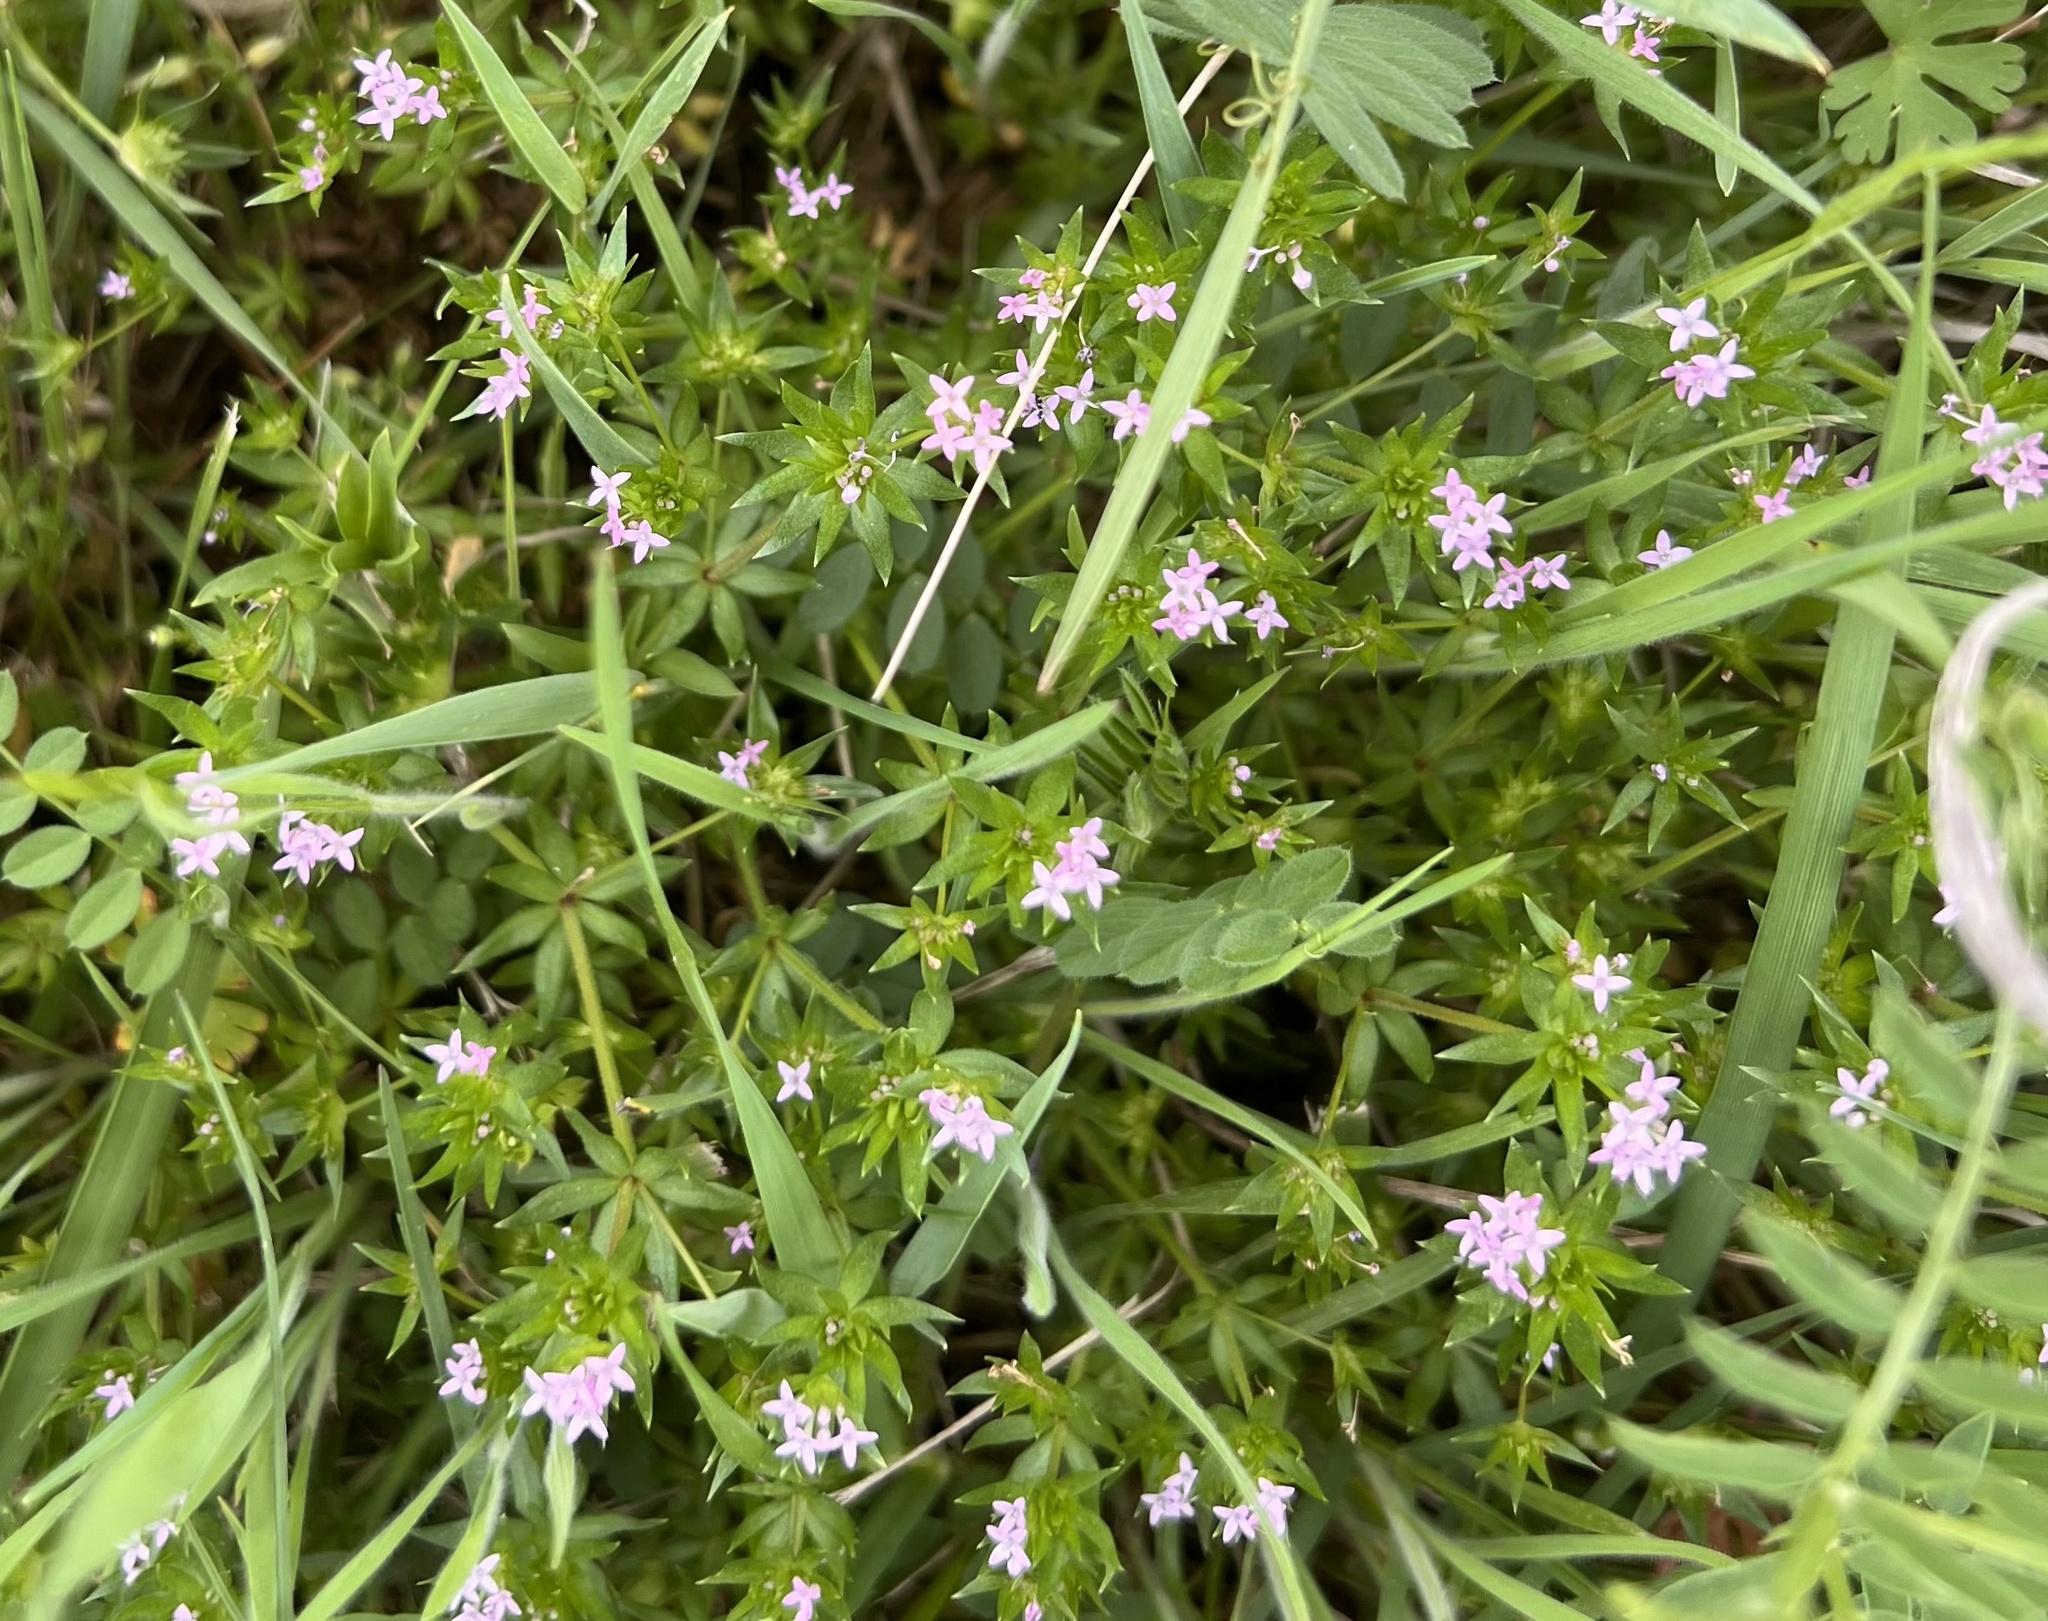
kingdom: Plantae
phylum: Tracheophyta
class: Magnoliopsida
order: Gentianales
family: Rubiaceae
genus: Sherardia
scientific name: Sherardia arvensis
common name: Field madder
